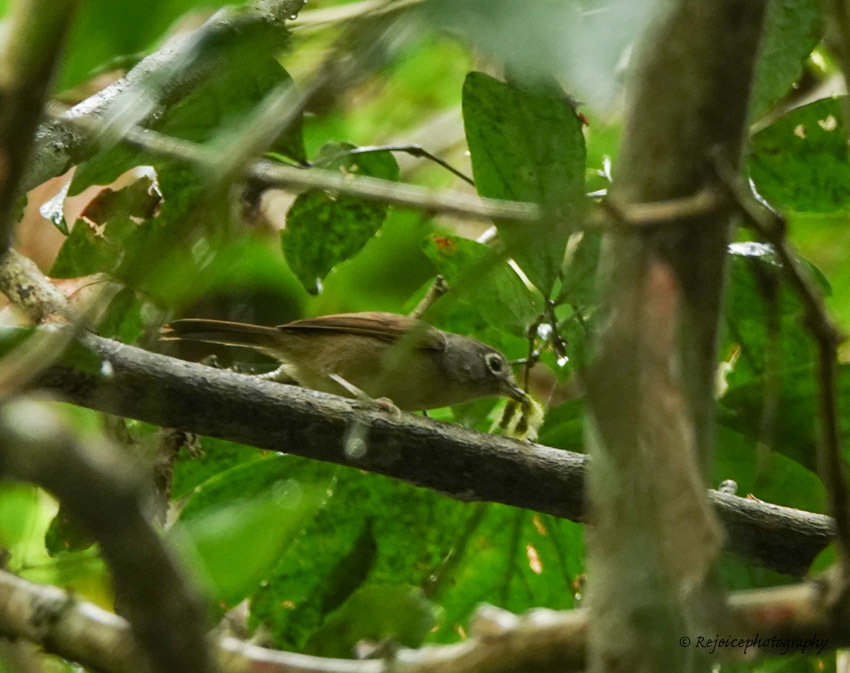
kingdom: Animalia
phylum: Chordata
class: Aves
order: Passeriformes
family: Pellorneidae
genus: Alcippe
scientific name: Alcippe nipalensis
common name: Nepal fulvetta
